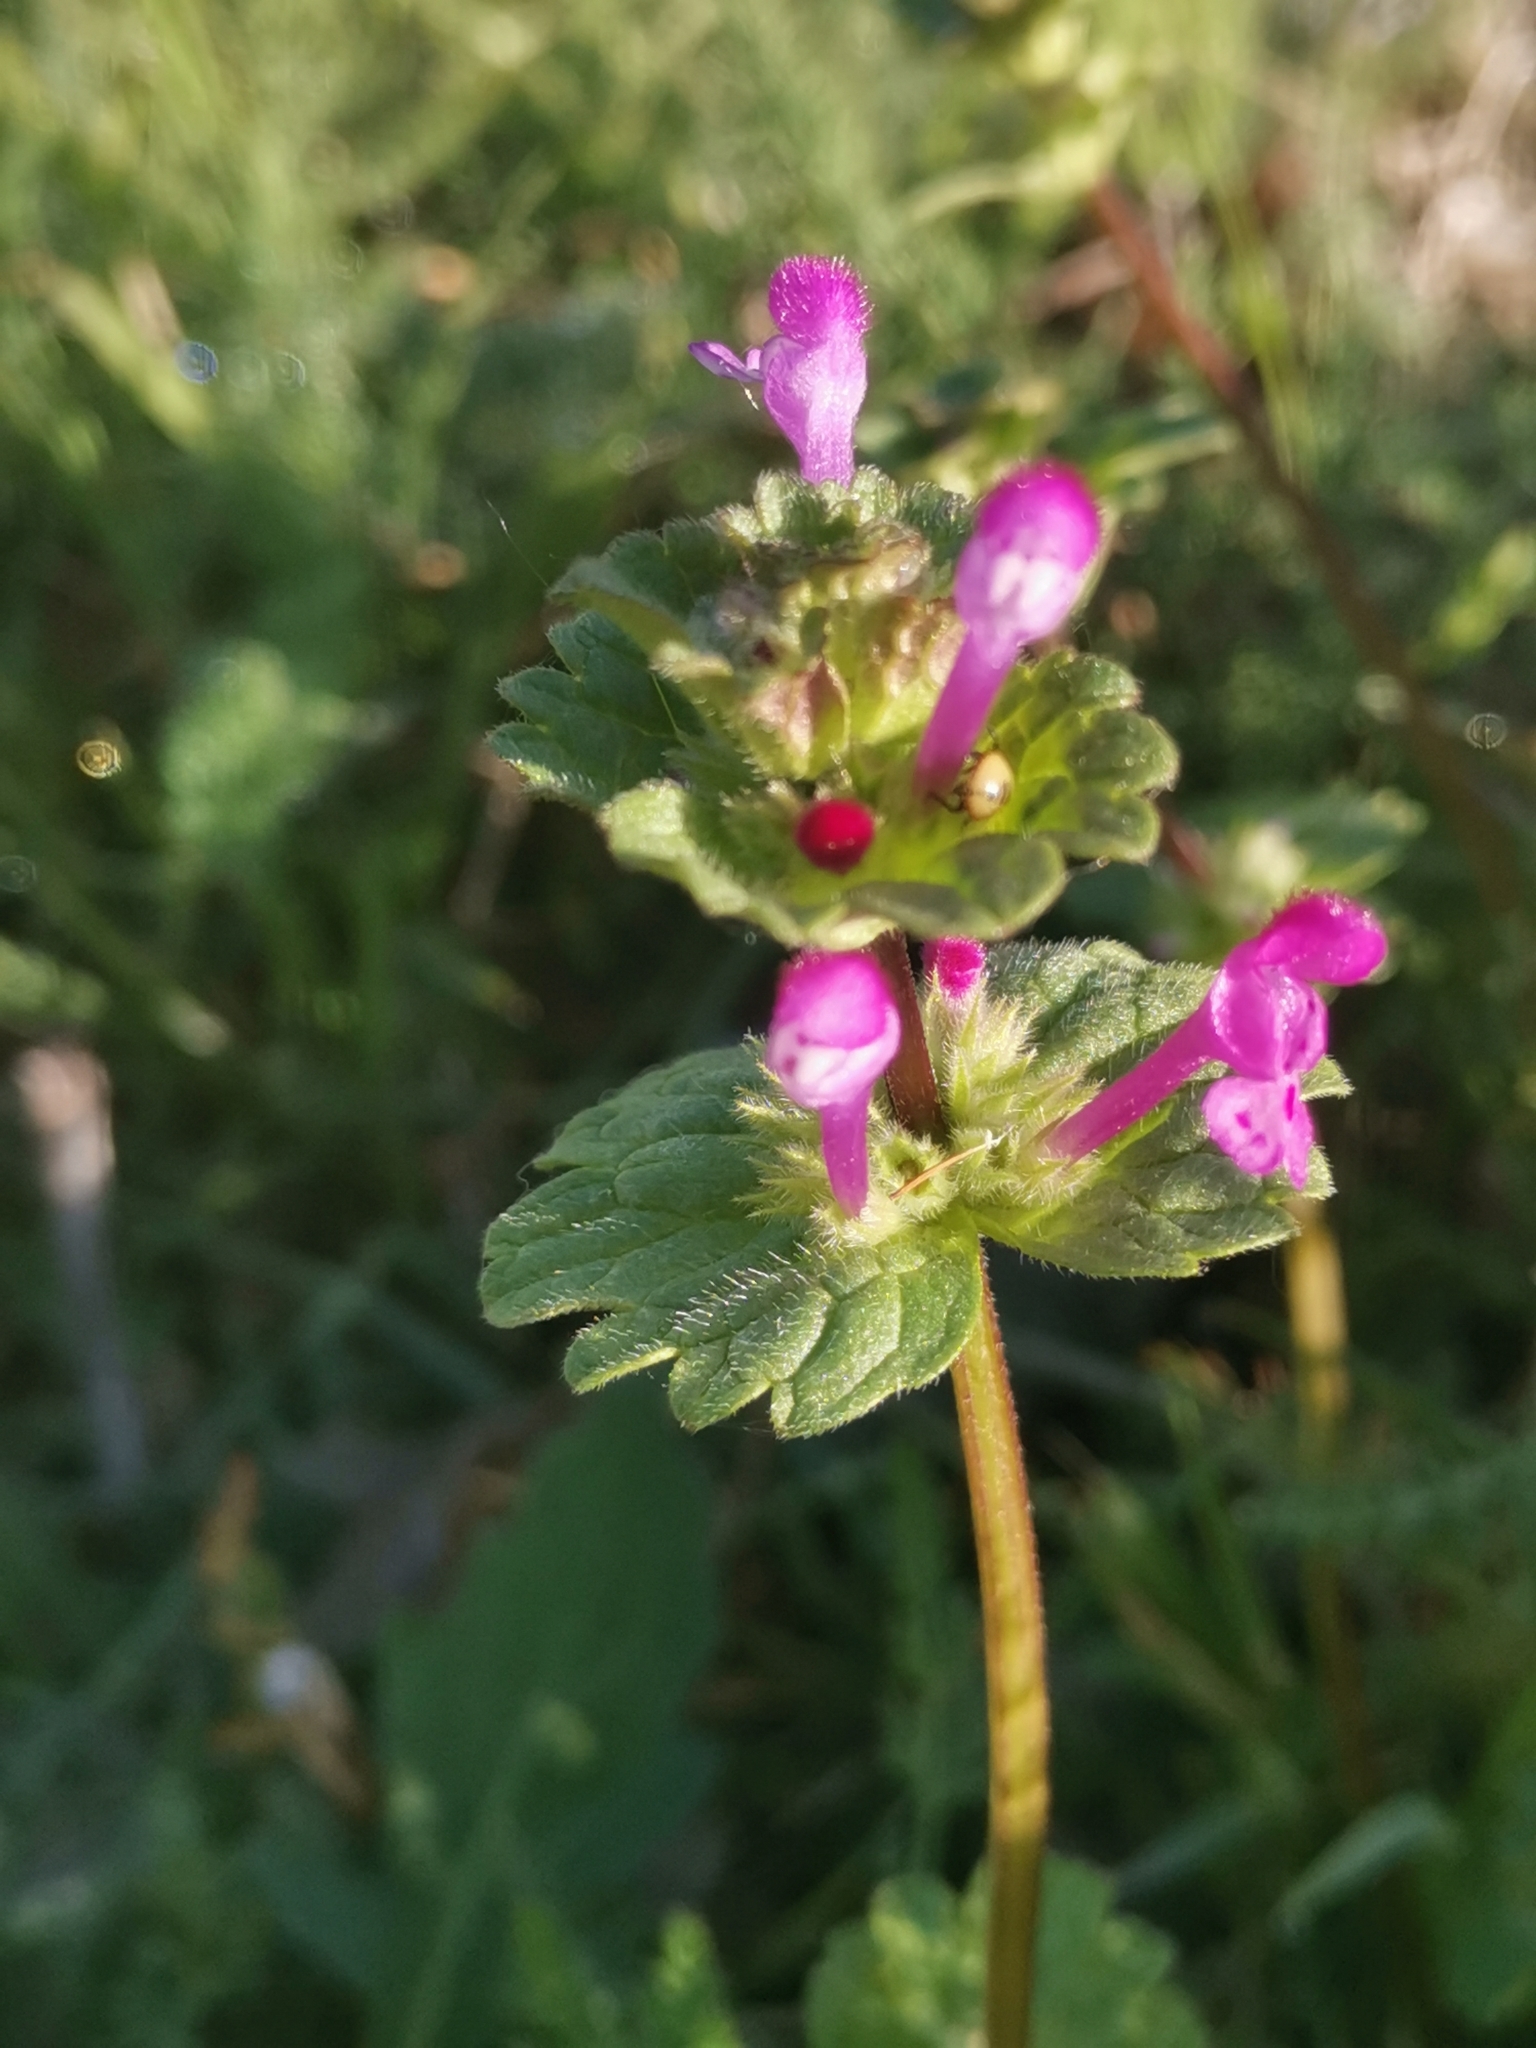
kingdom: Plantae
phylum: Tracheophyta
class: Magnoliopsida
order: Lamiales
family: Lamiaceae
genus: Lamium
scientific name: Lamium amplexicaule
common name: Henbit dead-nettle
